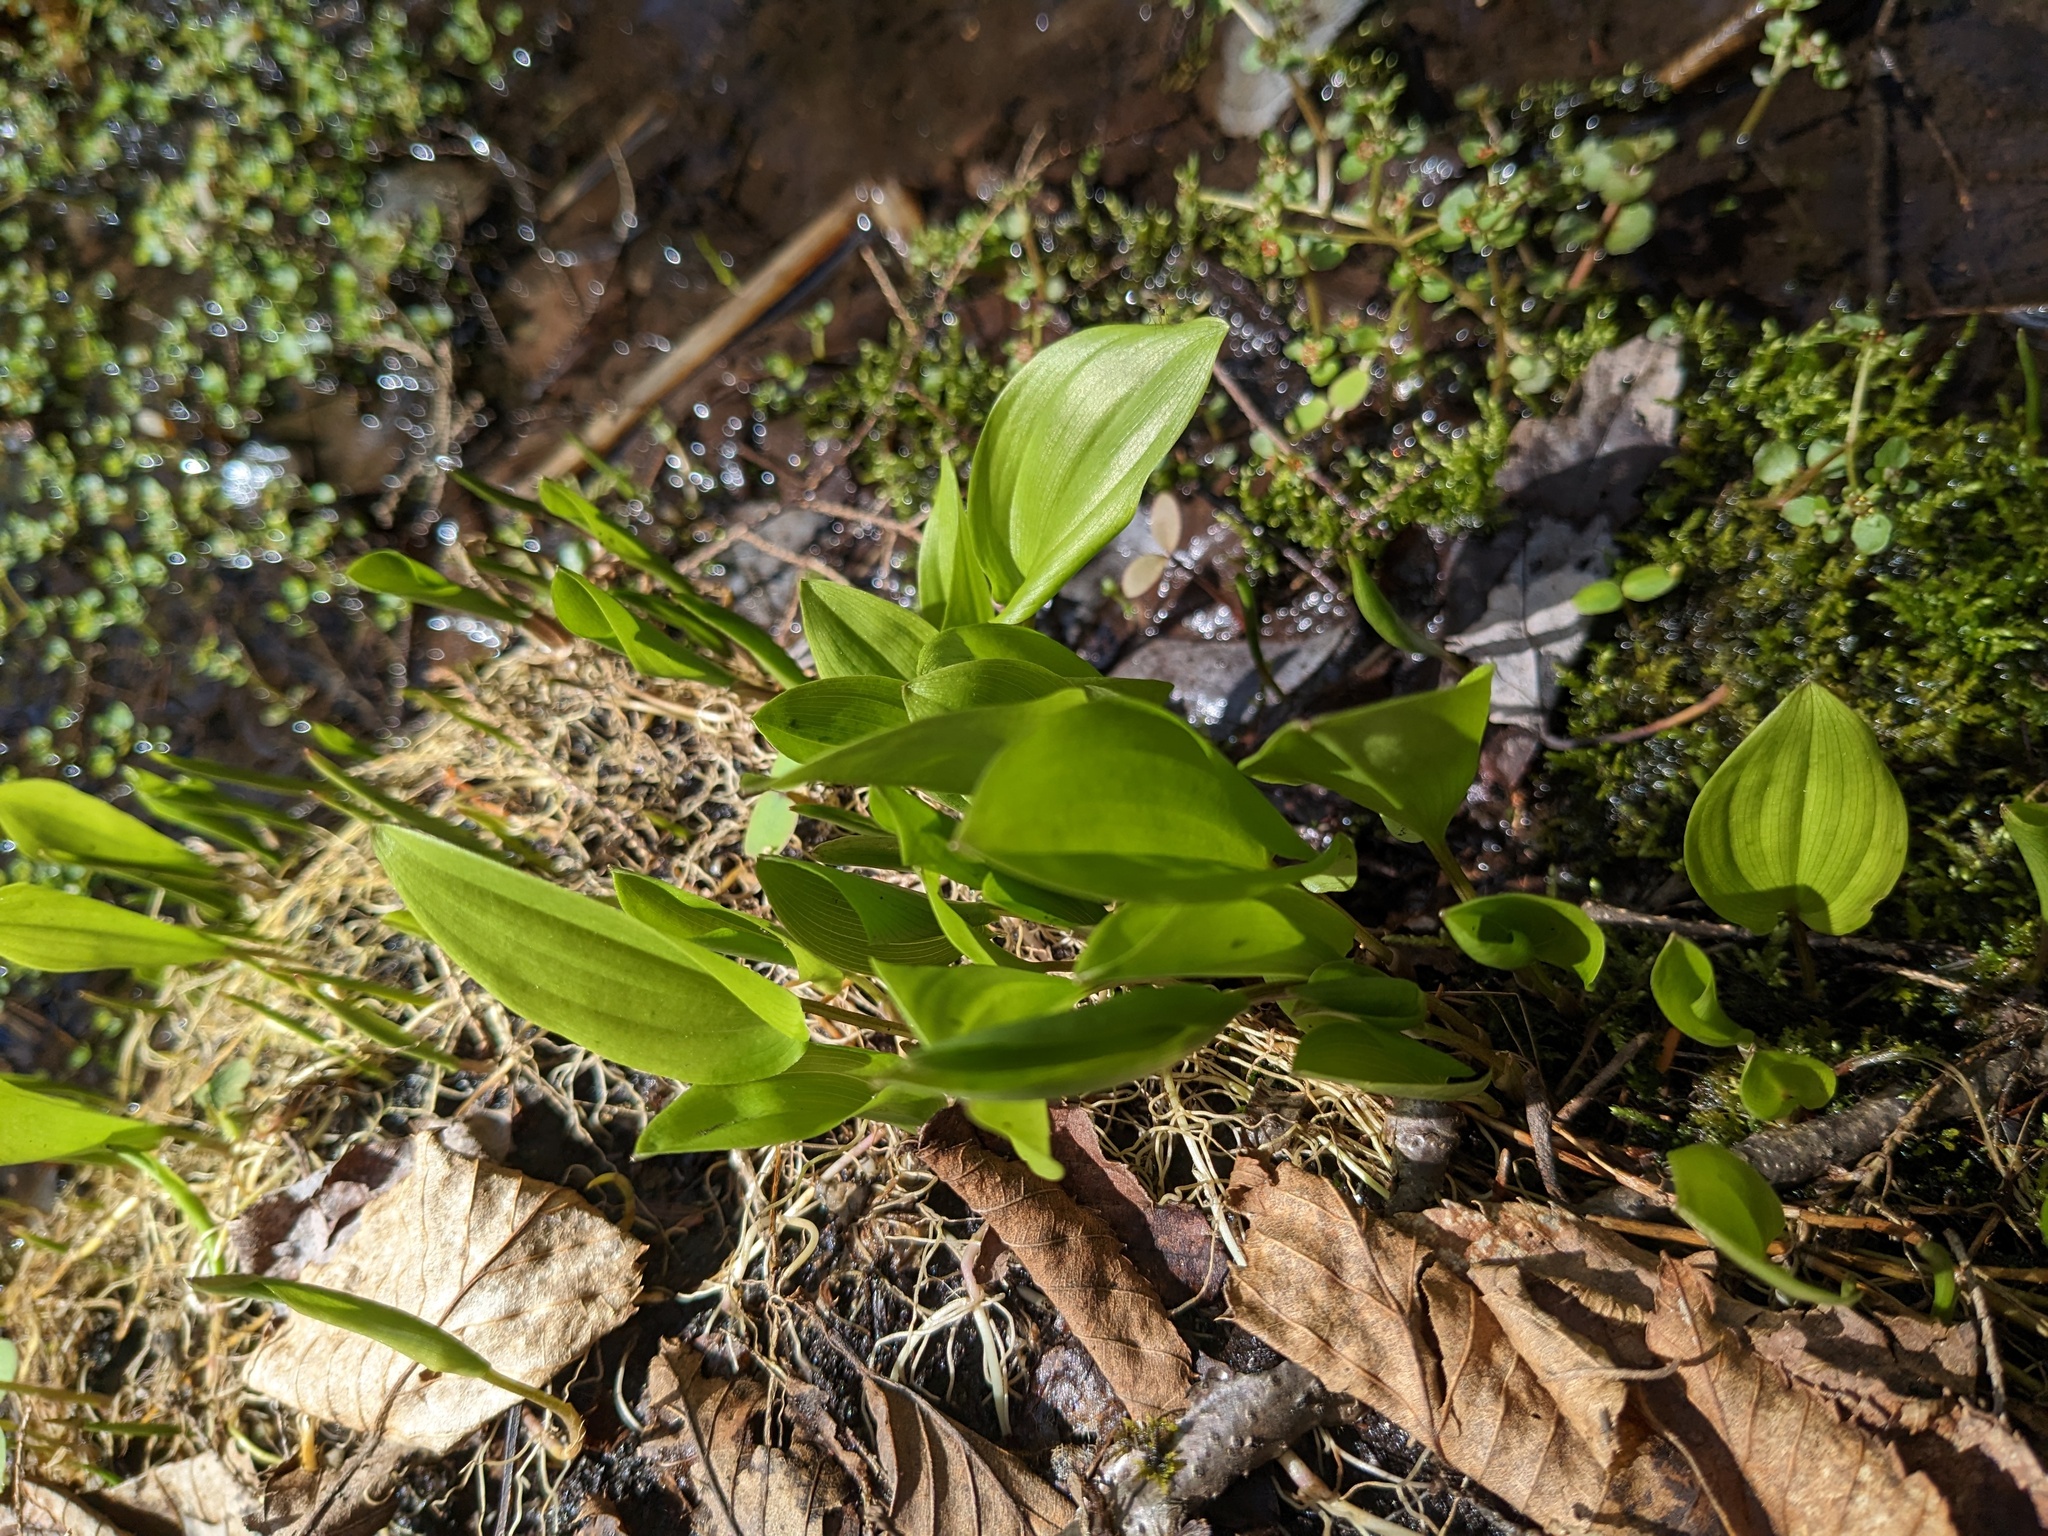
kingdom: Plantae
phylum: Tracheophyta
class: Liliopsida
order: Asparagales
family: Asparagaceae
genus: Maianthemum
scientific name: Maianthemum canadense
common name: False lily-of-the-valley
